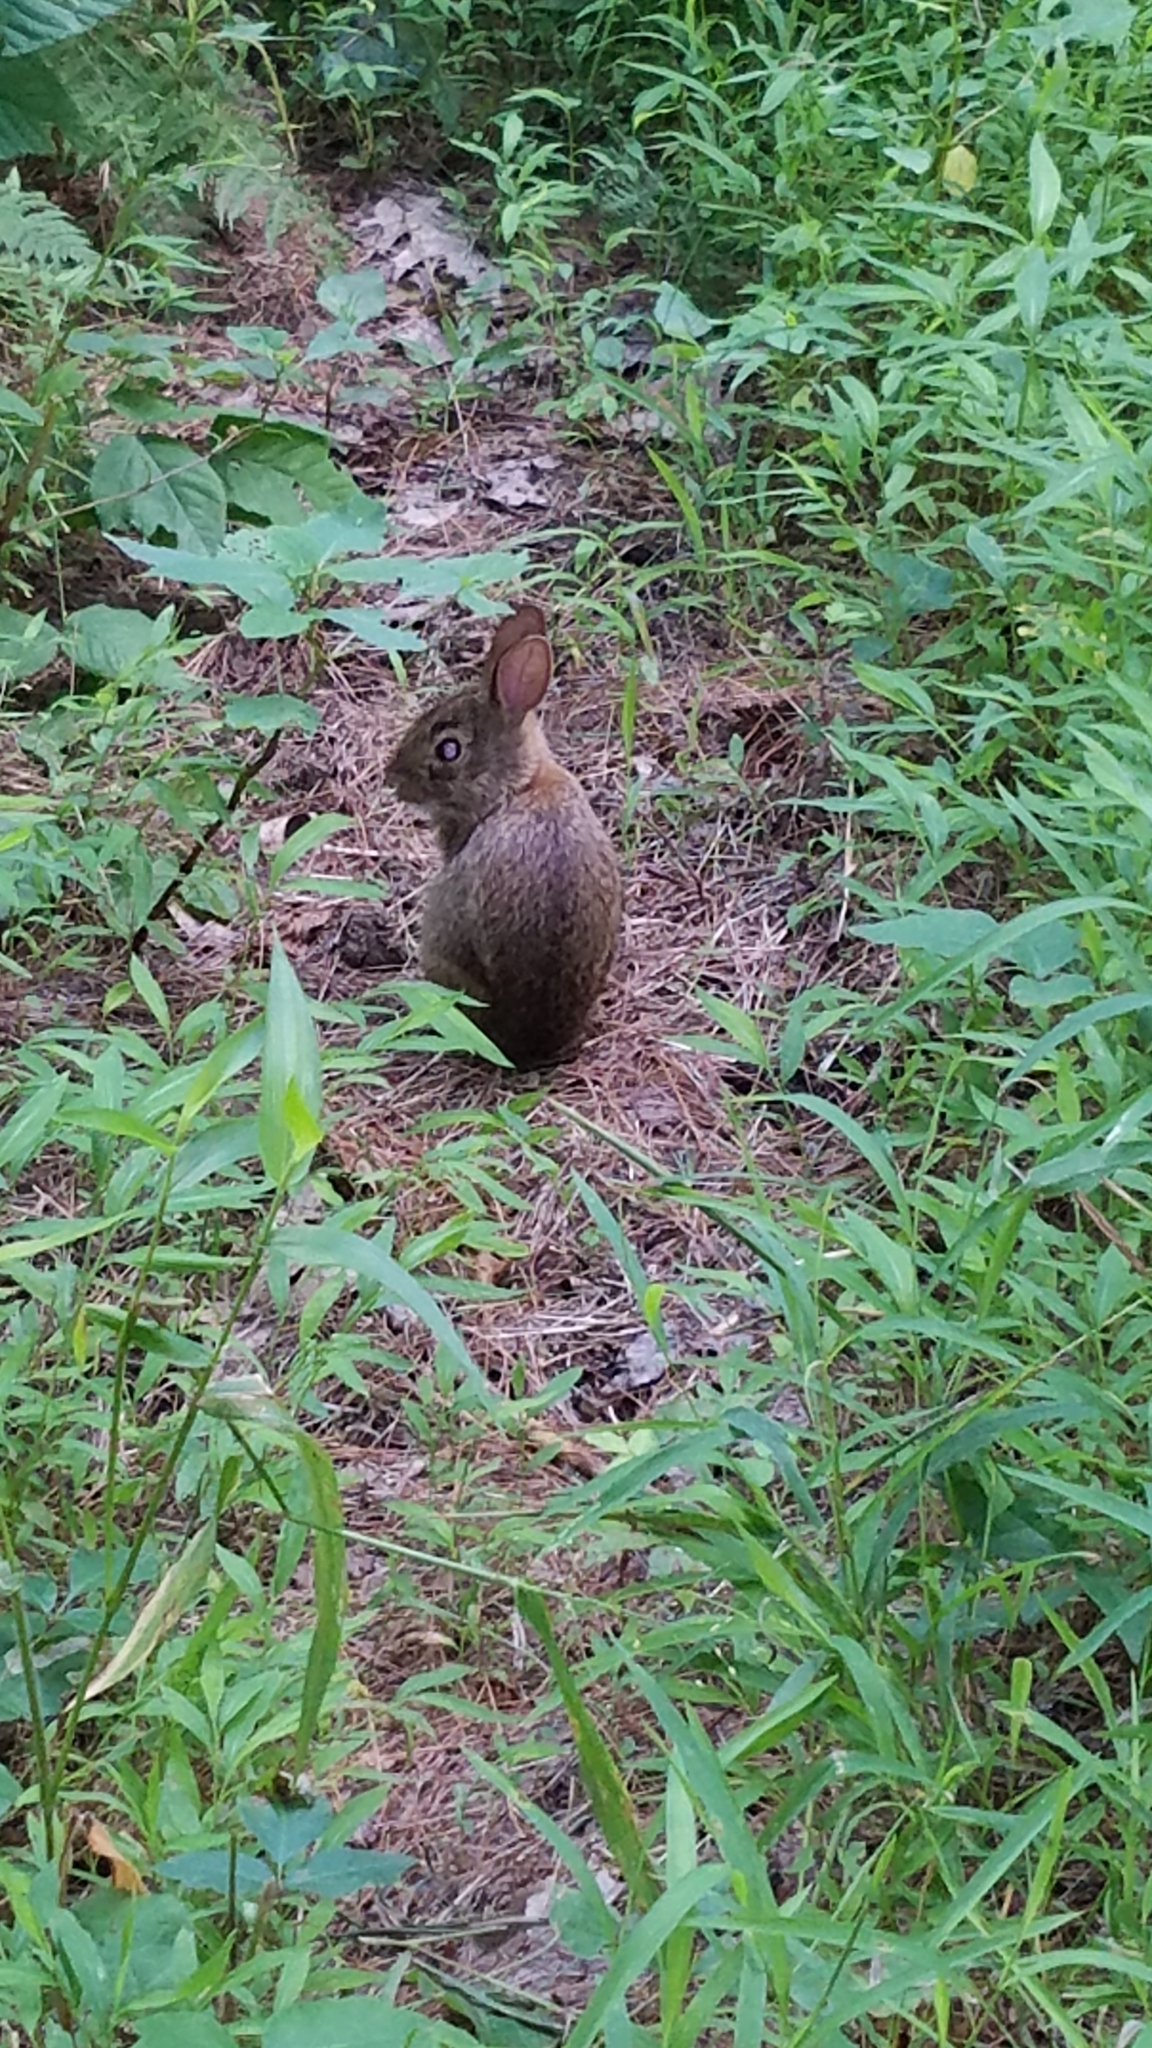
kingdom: Animalia
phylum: Chordata
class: Mammalia
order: Lagomorpha
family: Leporidae
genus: Sylvilagus
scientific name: Sylvilagus floridanus
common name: Eastern cottontail
